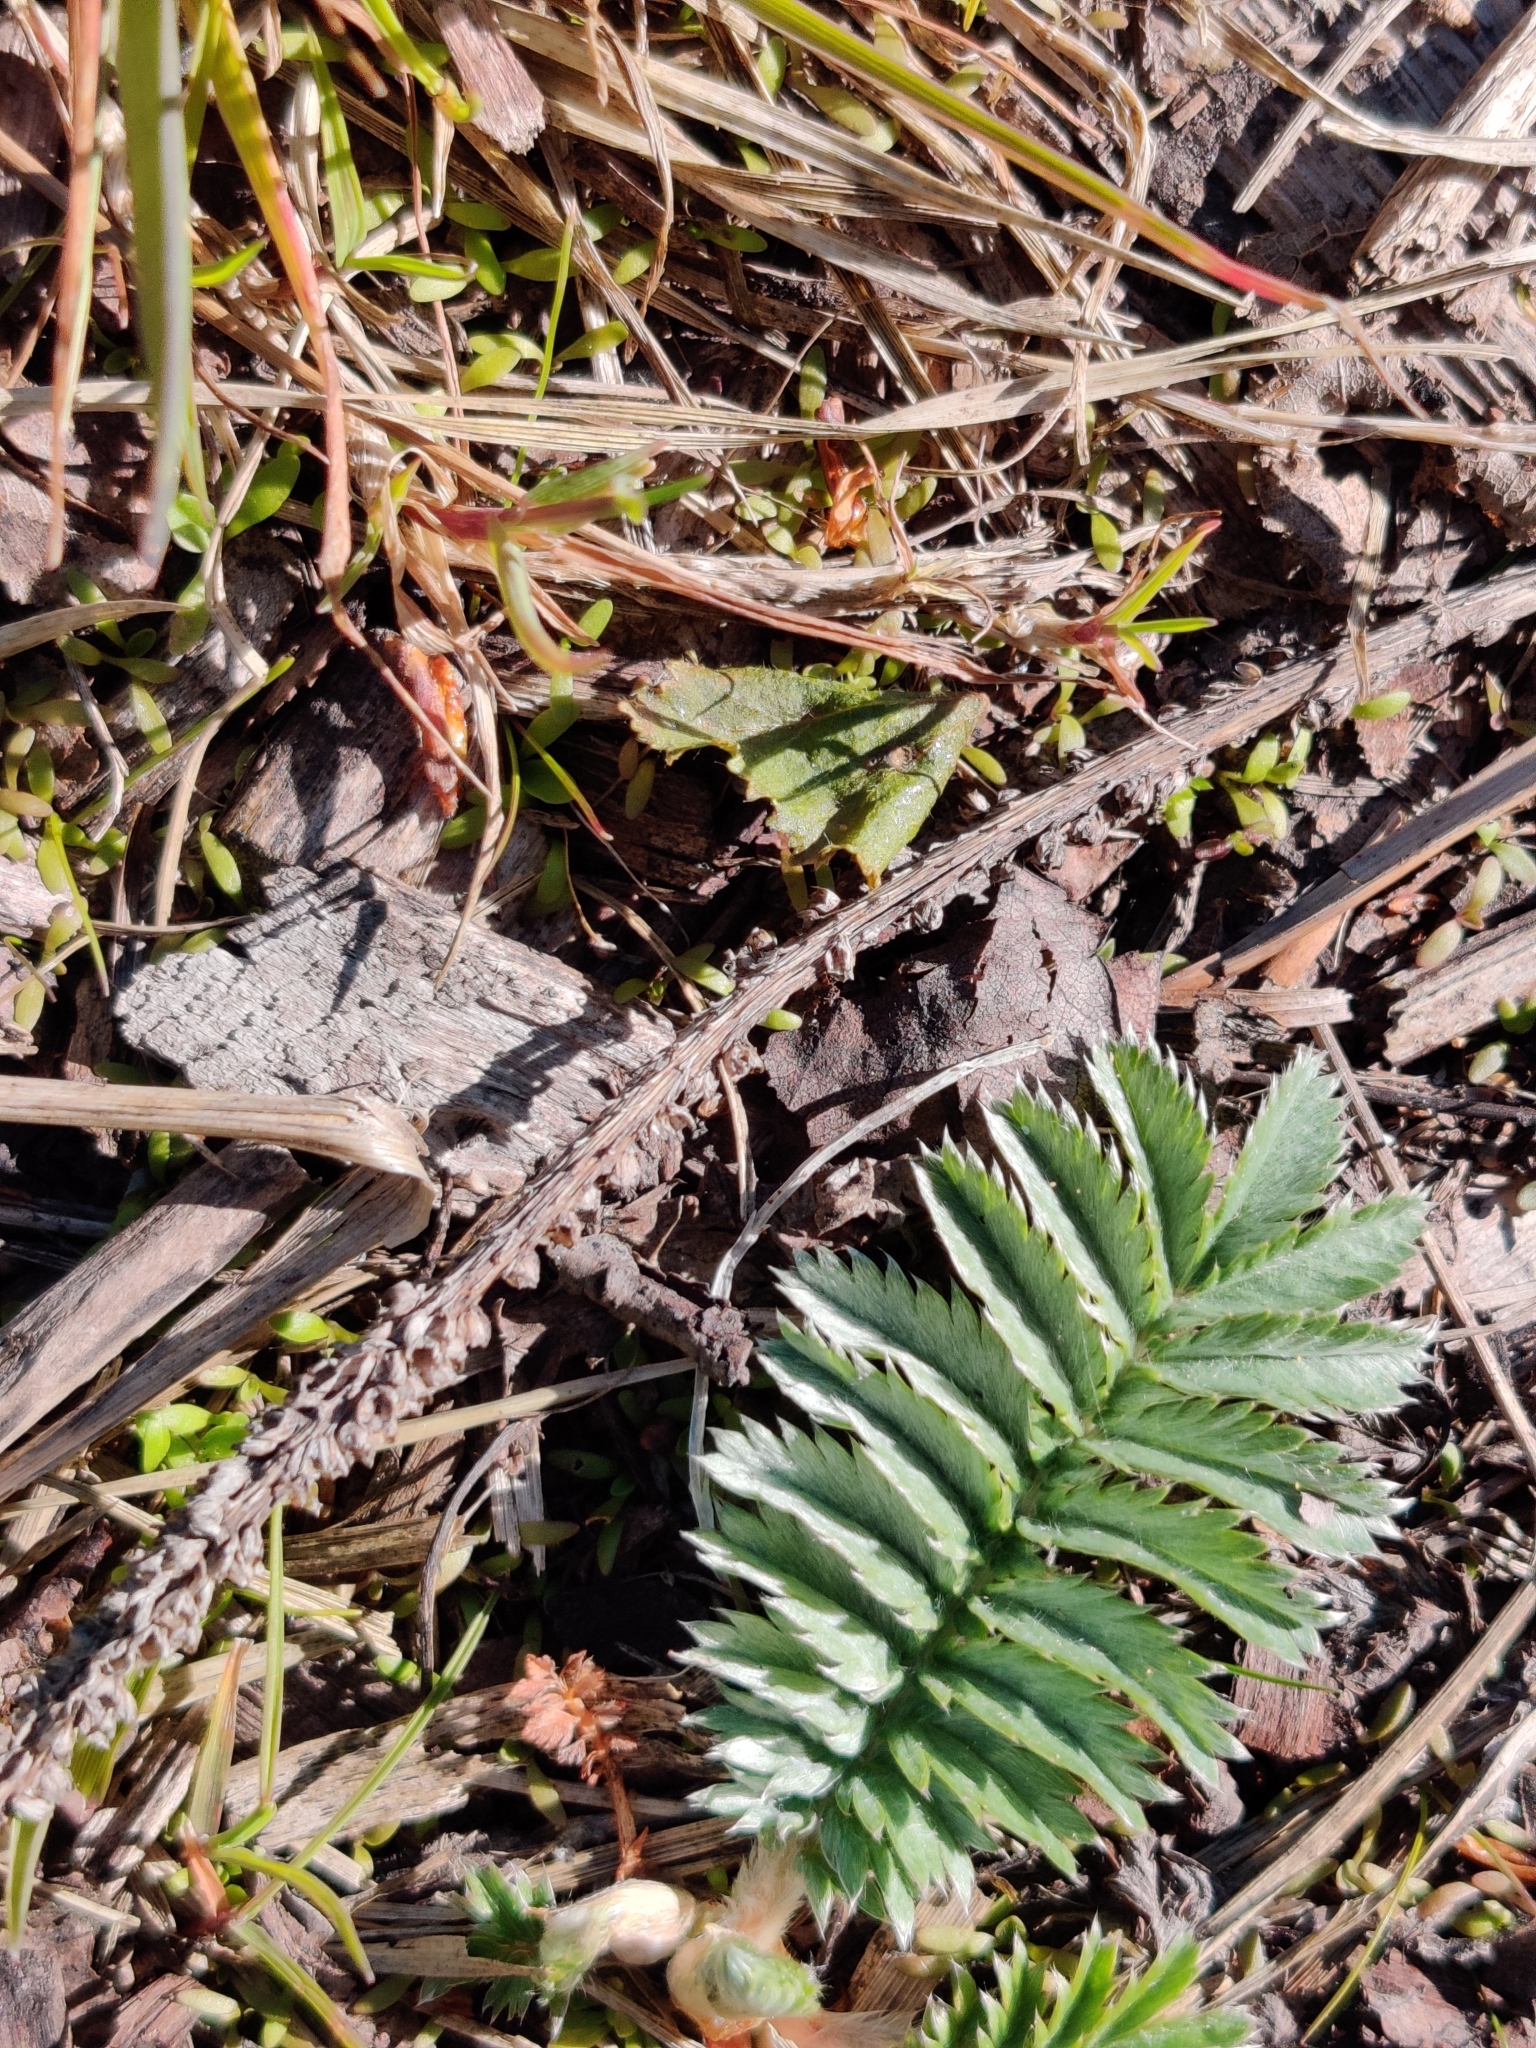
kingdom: Plantae
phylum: Tracheophyta
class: Magnoliopsida
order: Rosales
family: Rosaceae
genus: Argentina
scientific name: Argentina anserina
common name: Common silverweed
